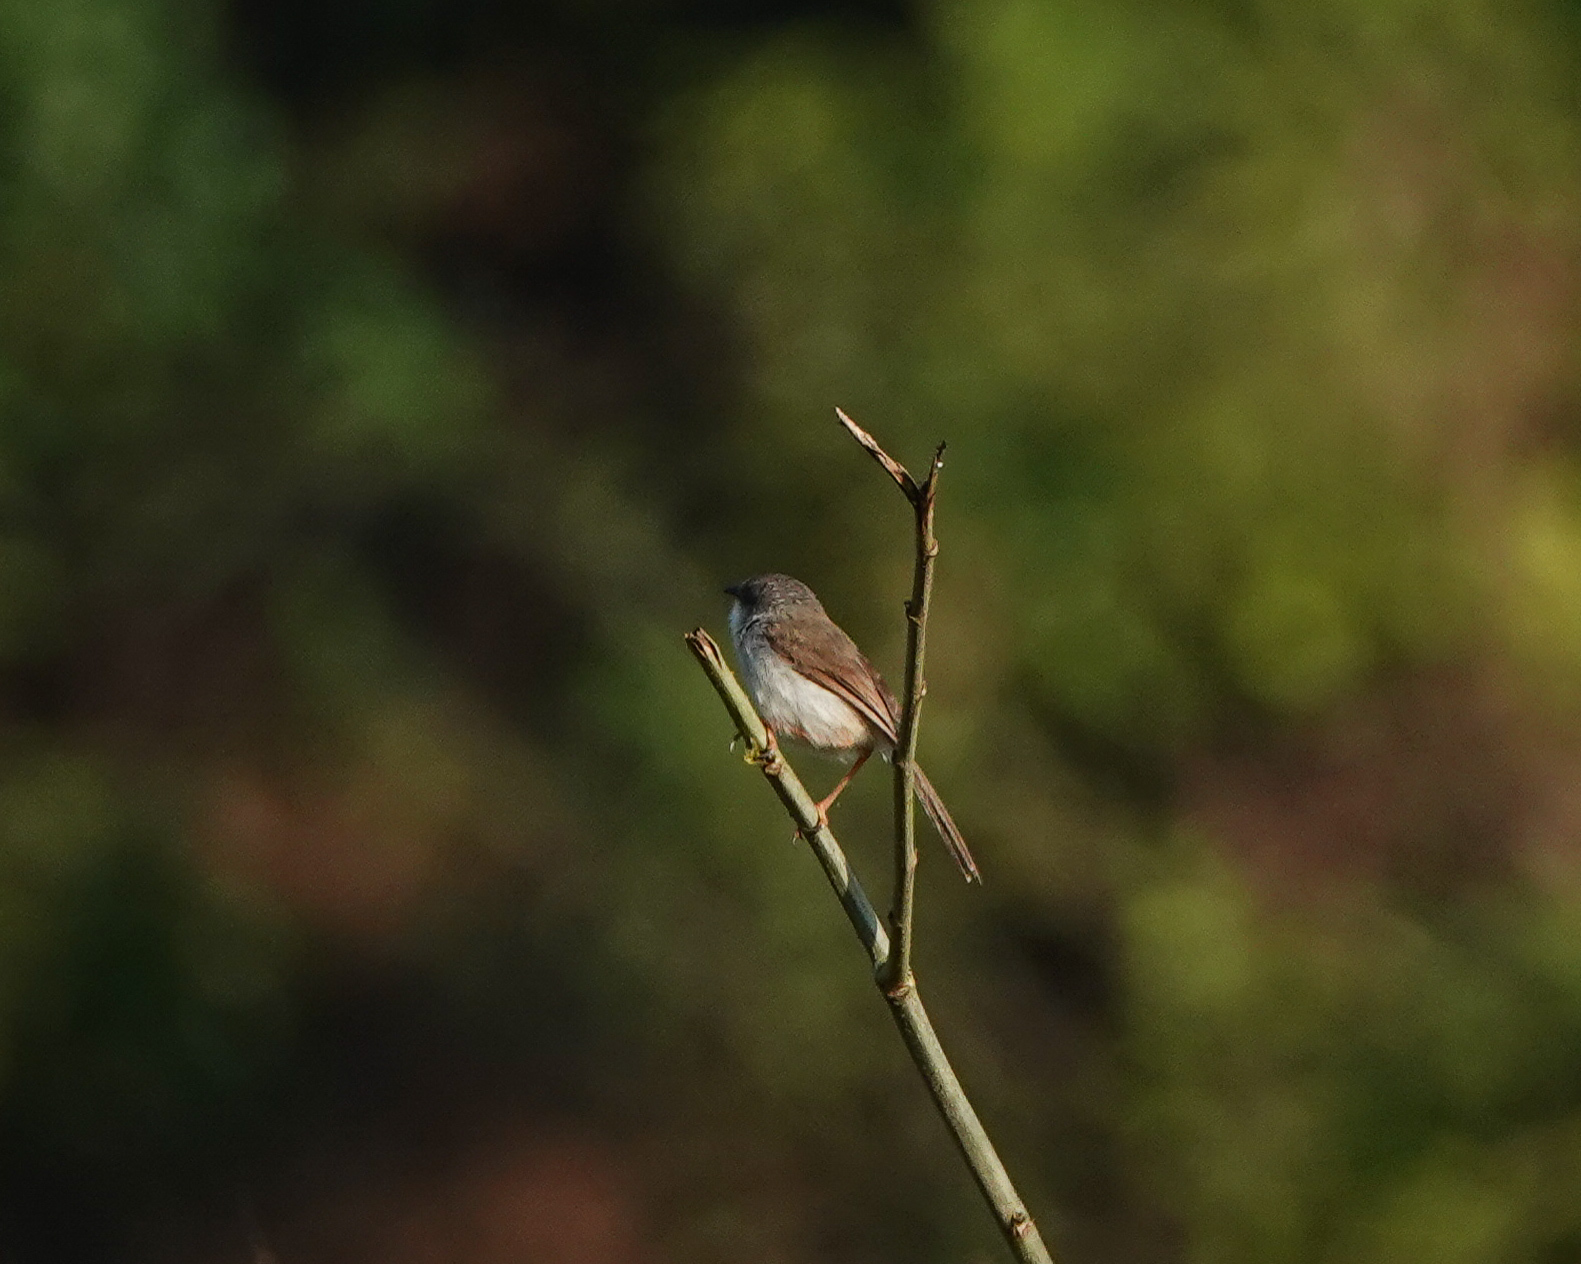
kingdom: Animalia
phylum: Chordata
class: Aves
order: Passeriformes
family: Cisticolidae
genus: Prinia
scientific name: Prinia hodgsonii
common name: Grey-breasted prinia
